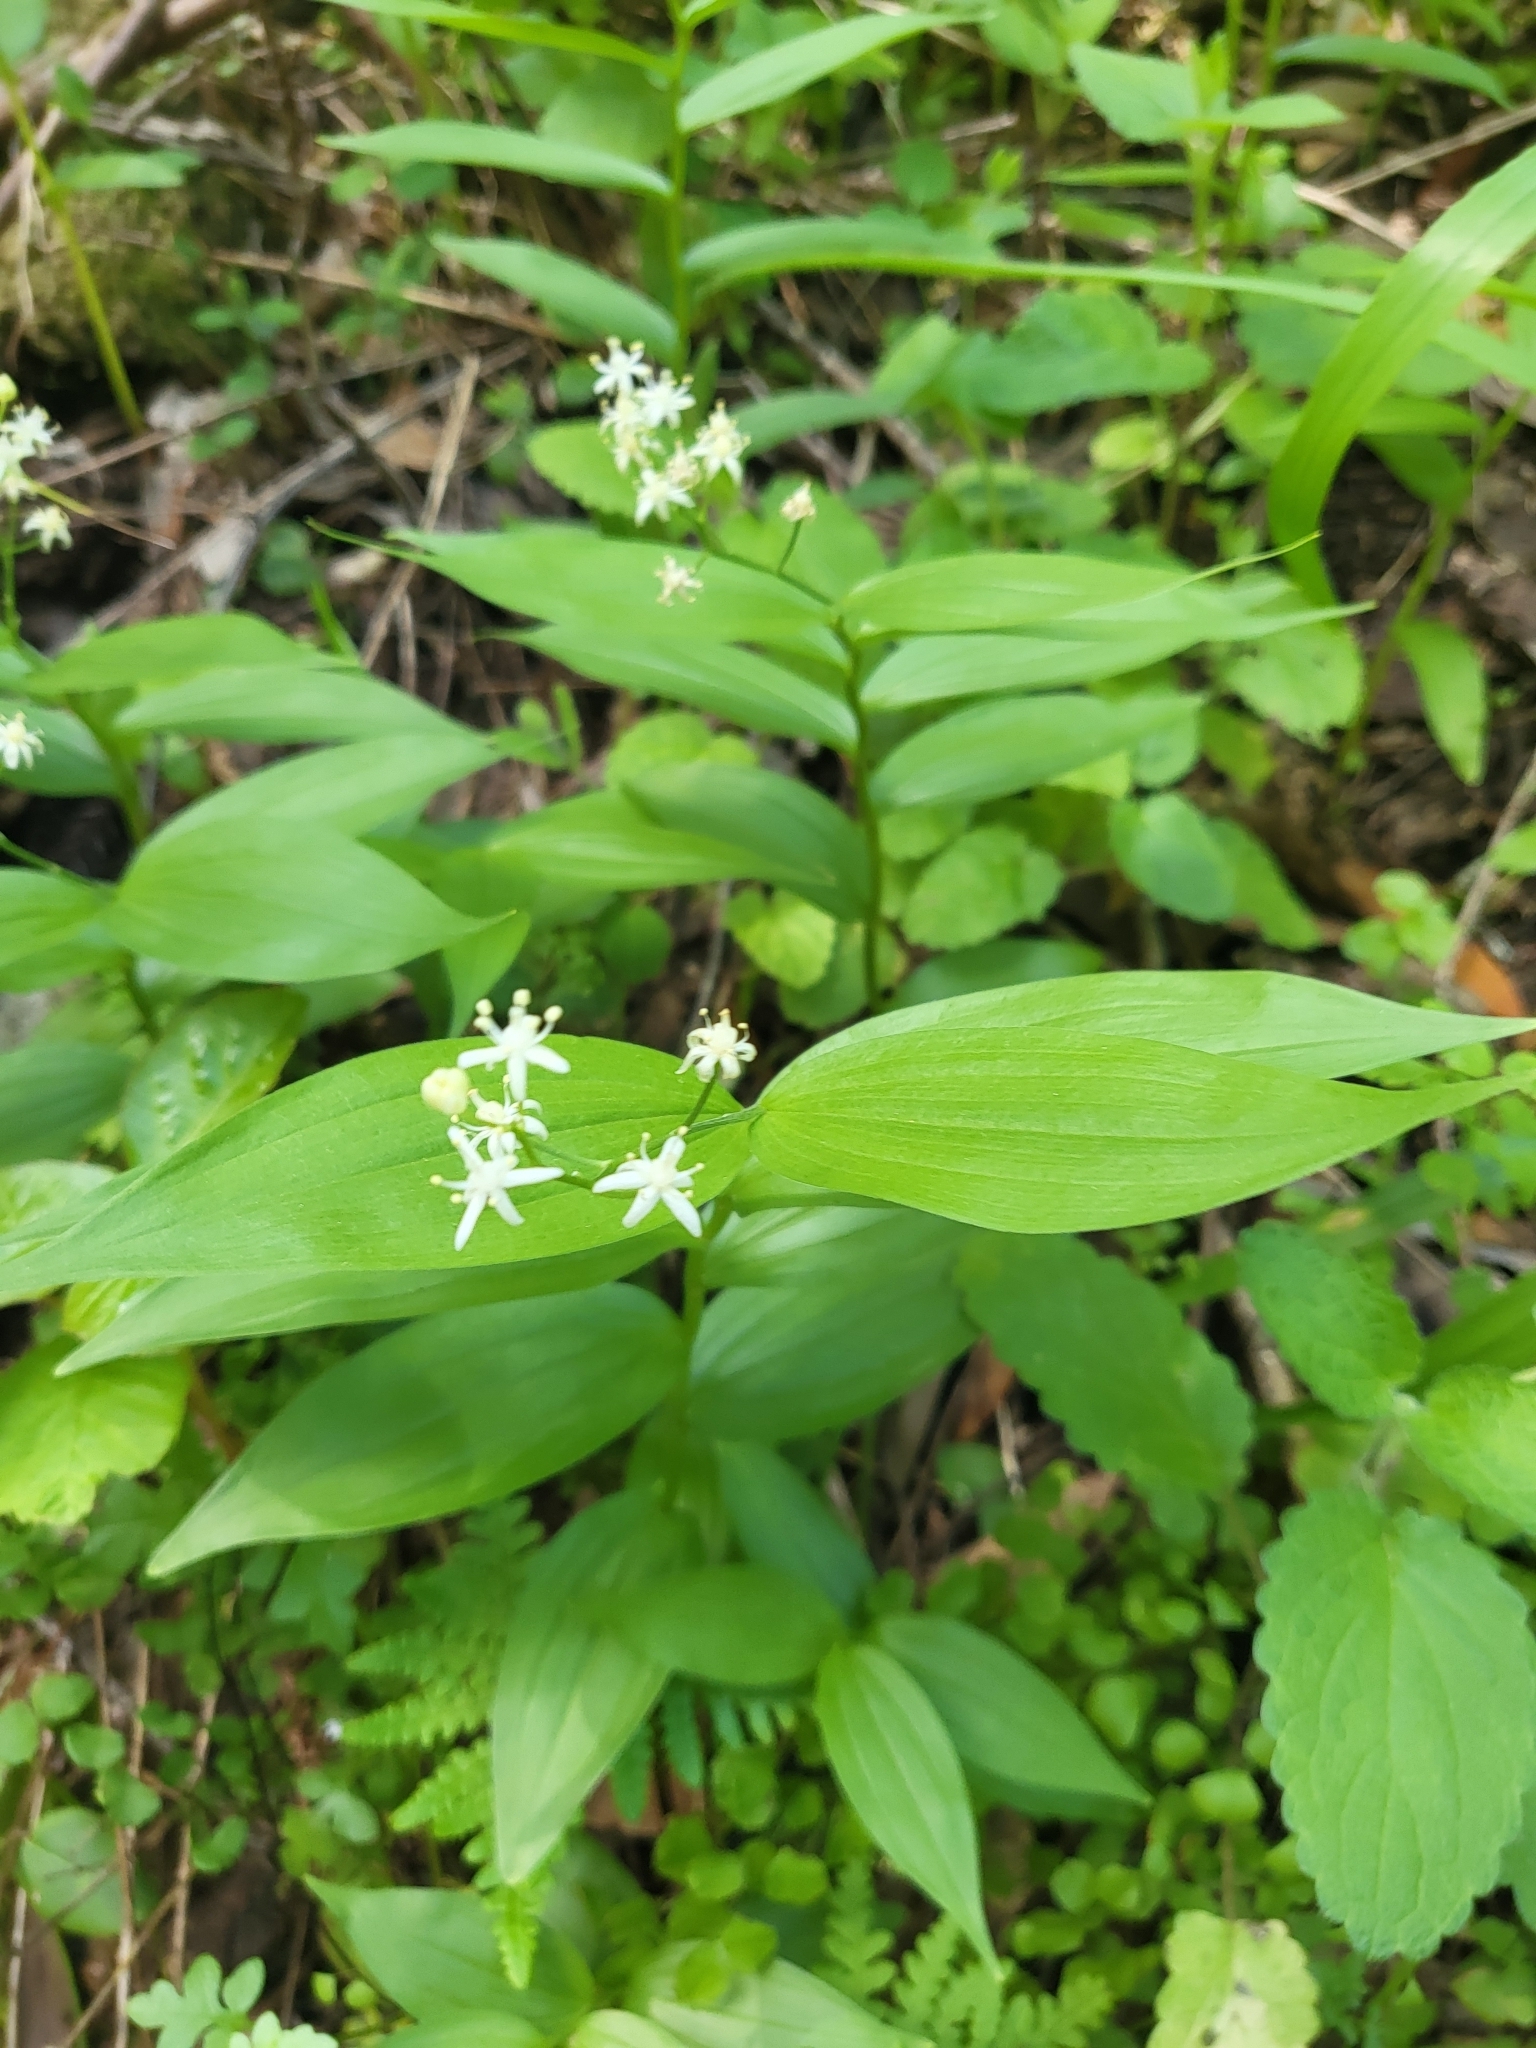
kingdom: Plantae
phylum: Tracheophyta
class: Liliopsida
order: Asparagales
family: Asparagaceae
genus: Maianthemum
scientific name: Maianthemum stellatum
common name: Little false solomon's seal
